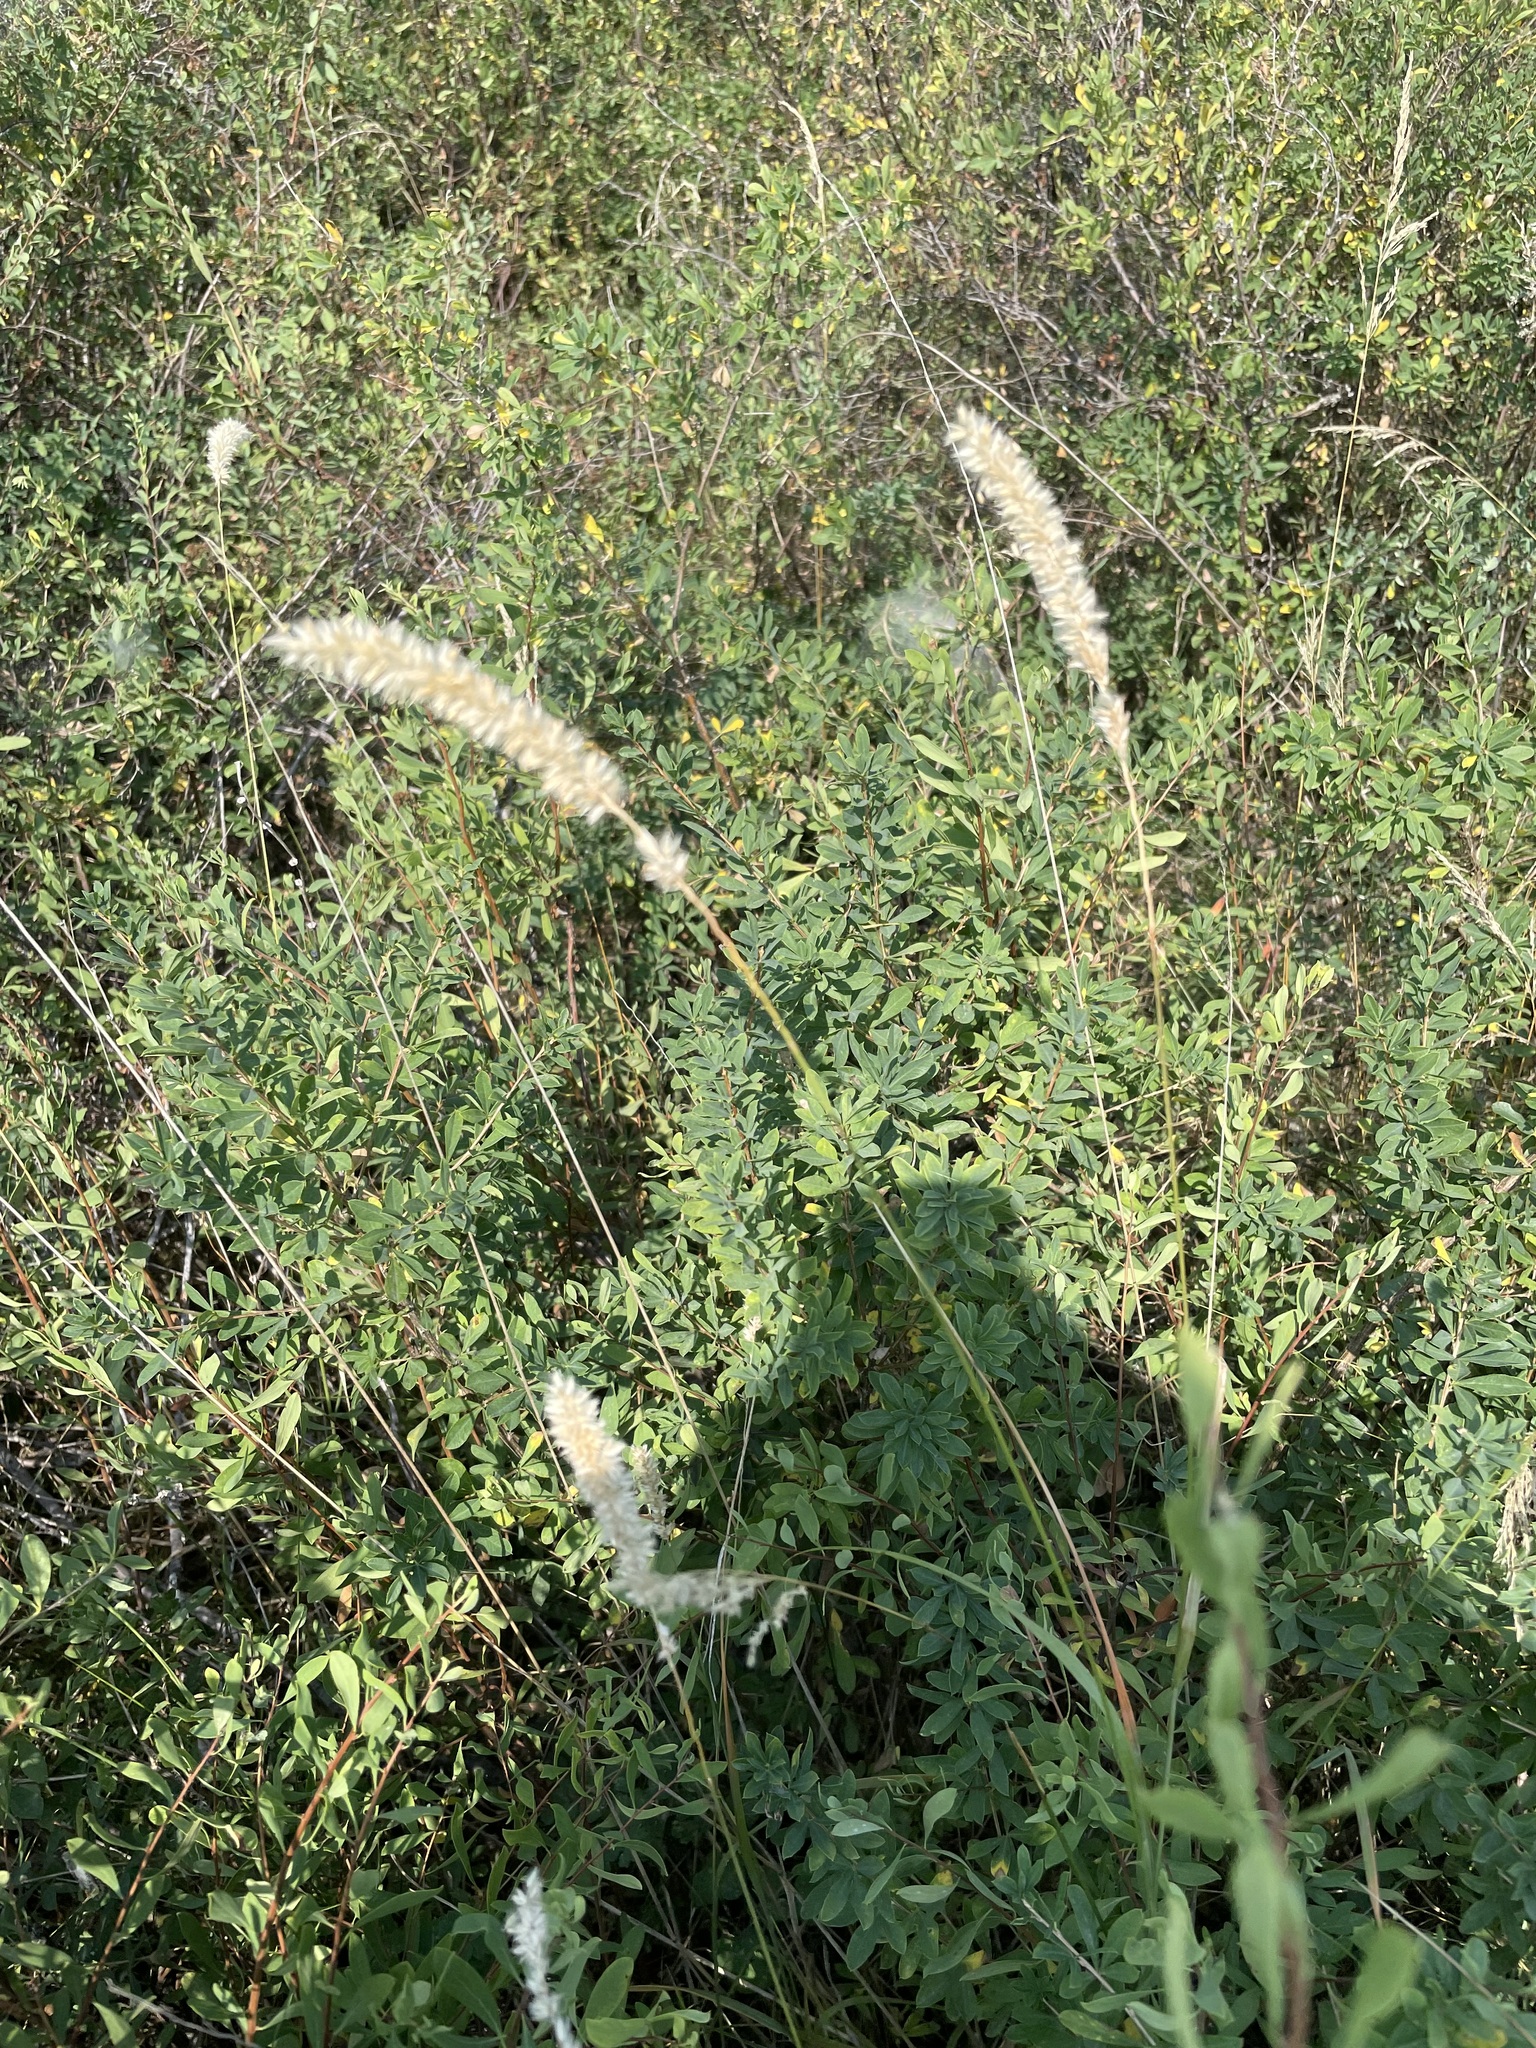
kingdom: Plantae
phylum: Tracheophyta
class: Liliopsida
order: Poales
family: Poaceae
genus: Melica
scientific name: Melica transsilvanica
